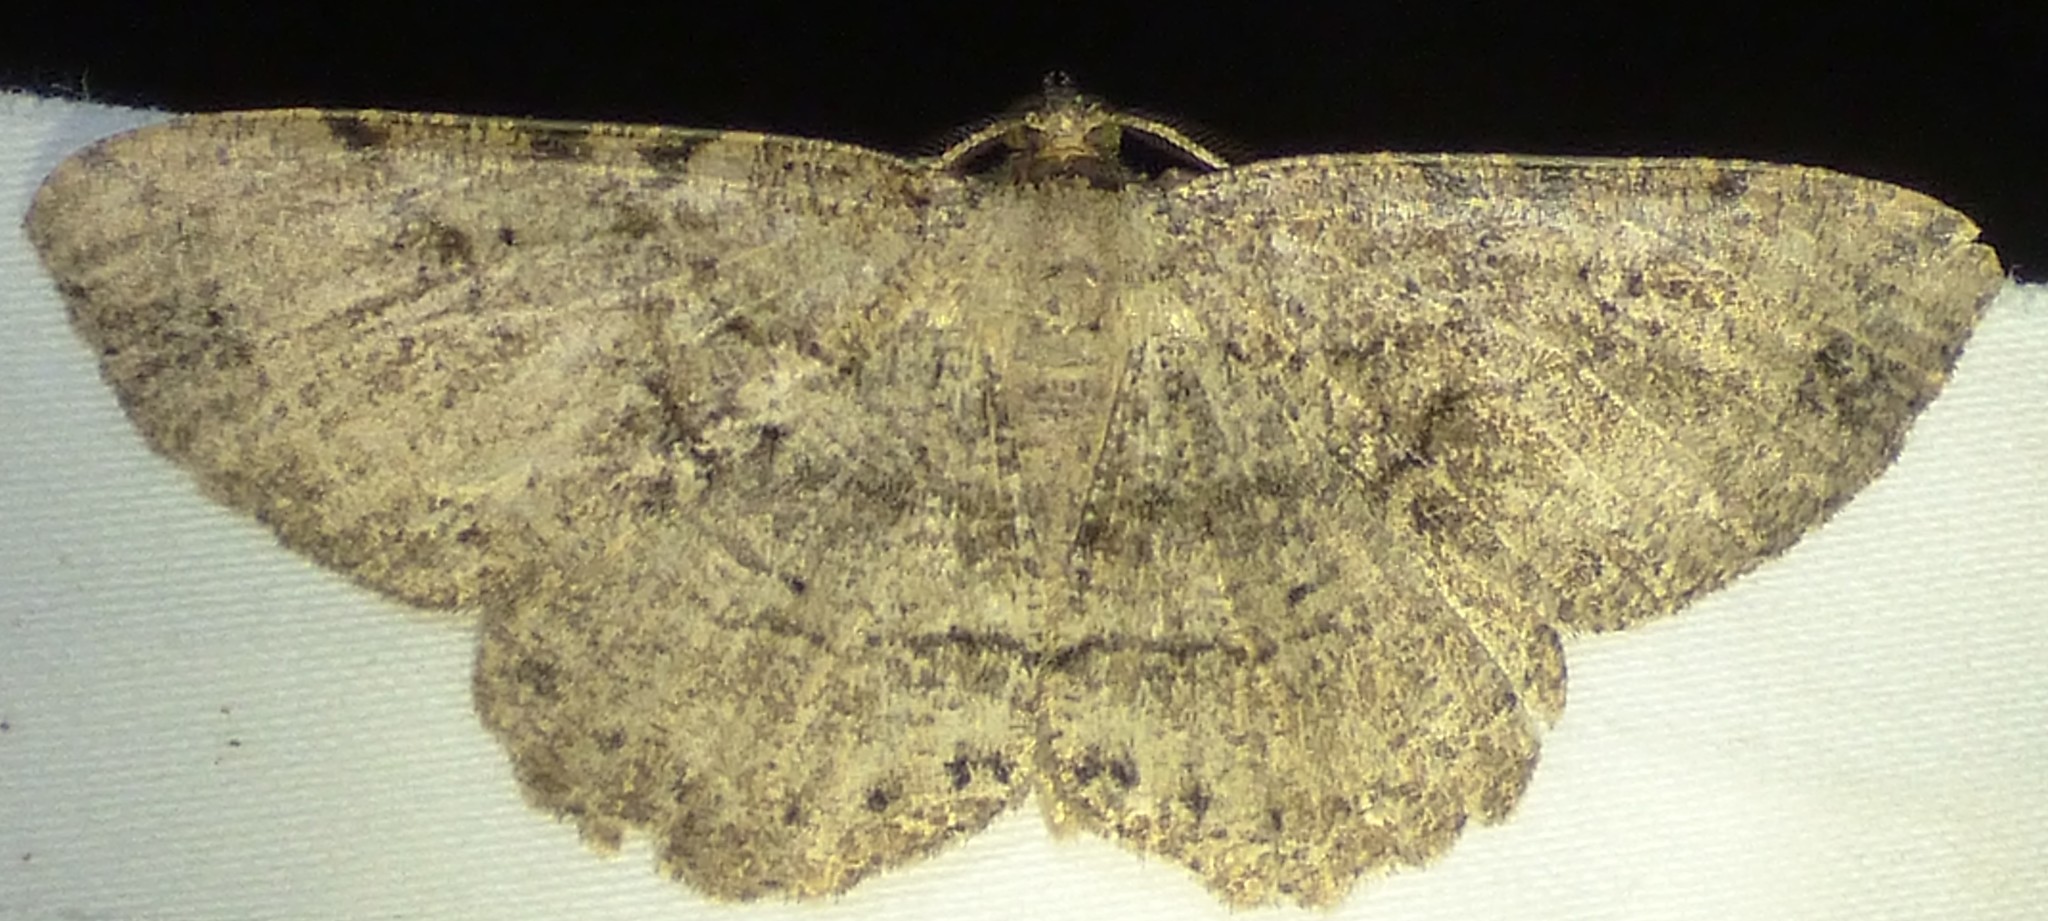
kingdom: Animalia
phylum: Arthropoda
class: Insecta
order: Lepidoptera
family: Geometridae
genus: Melanolophia
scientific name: Melanolophia canadaria
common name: Canadian melanolophia
